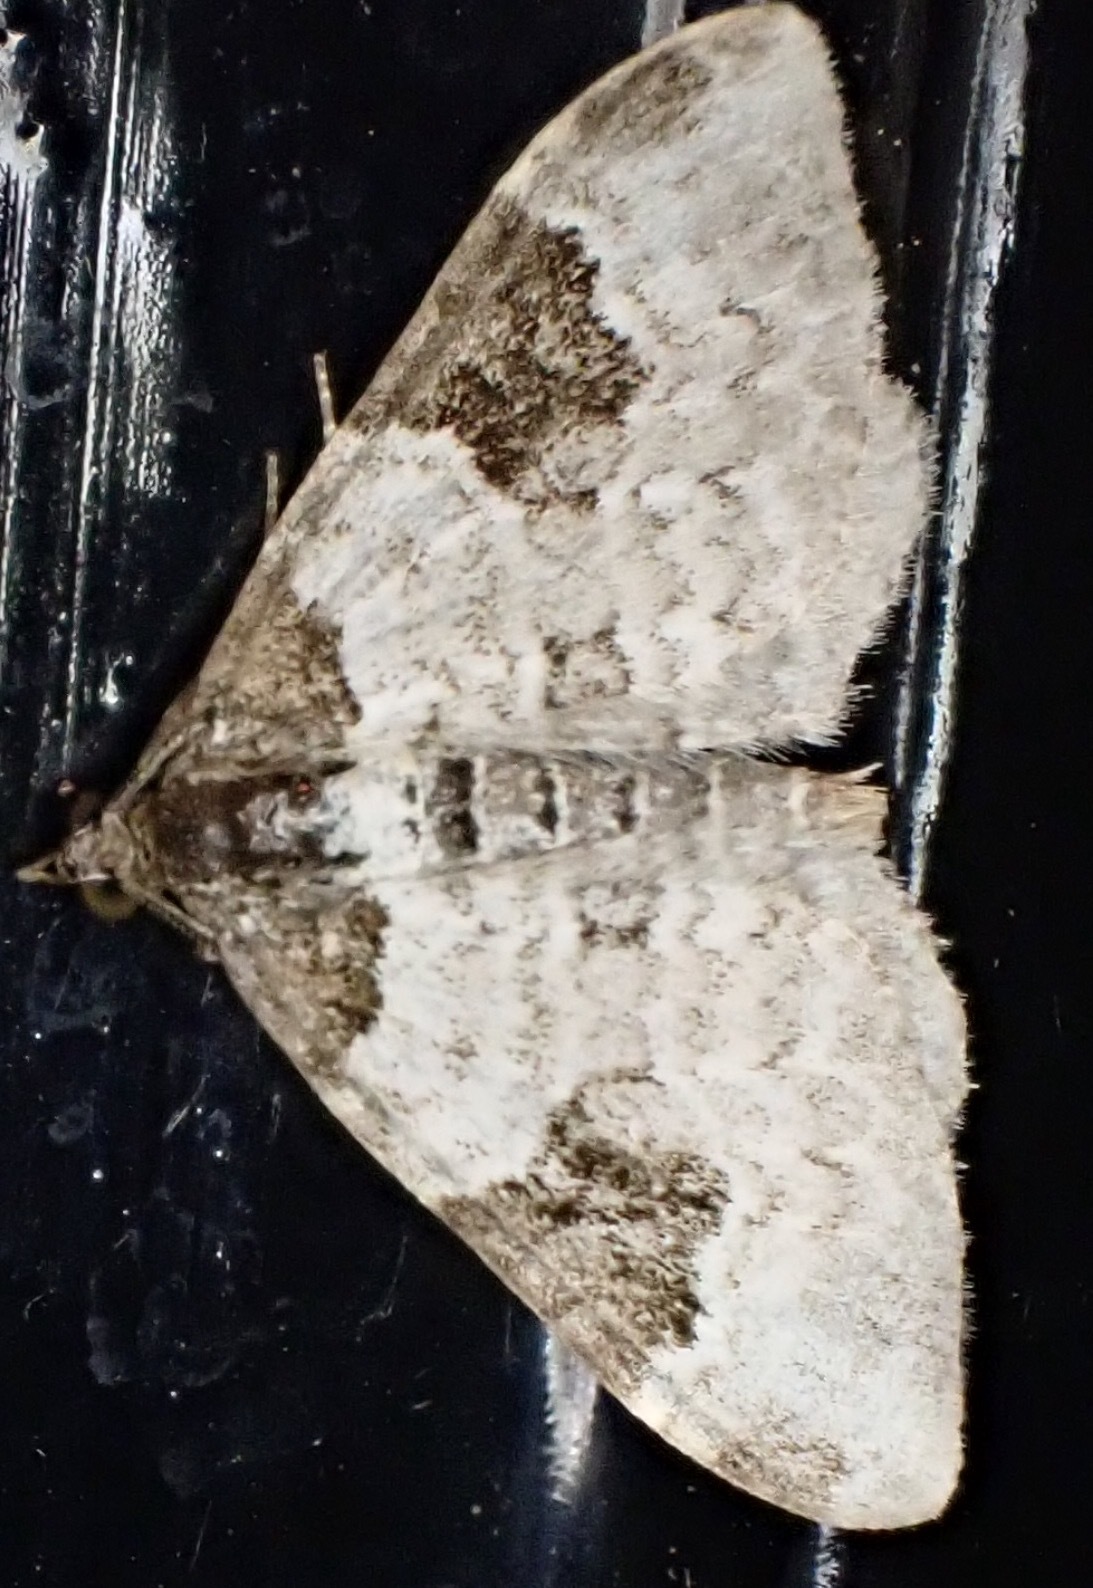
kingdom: Animalia
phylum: Arthropoda
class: Insecta
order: Lepidoptera
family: Geometridae
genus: Xanthorhoe
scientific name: Xanthorhoe fluctuata
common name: Garden carpet
